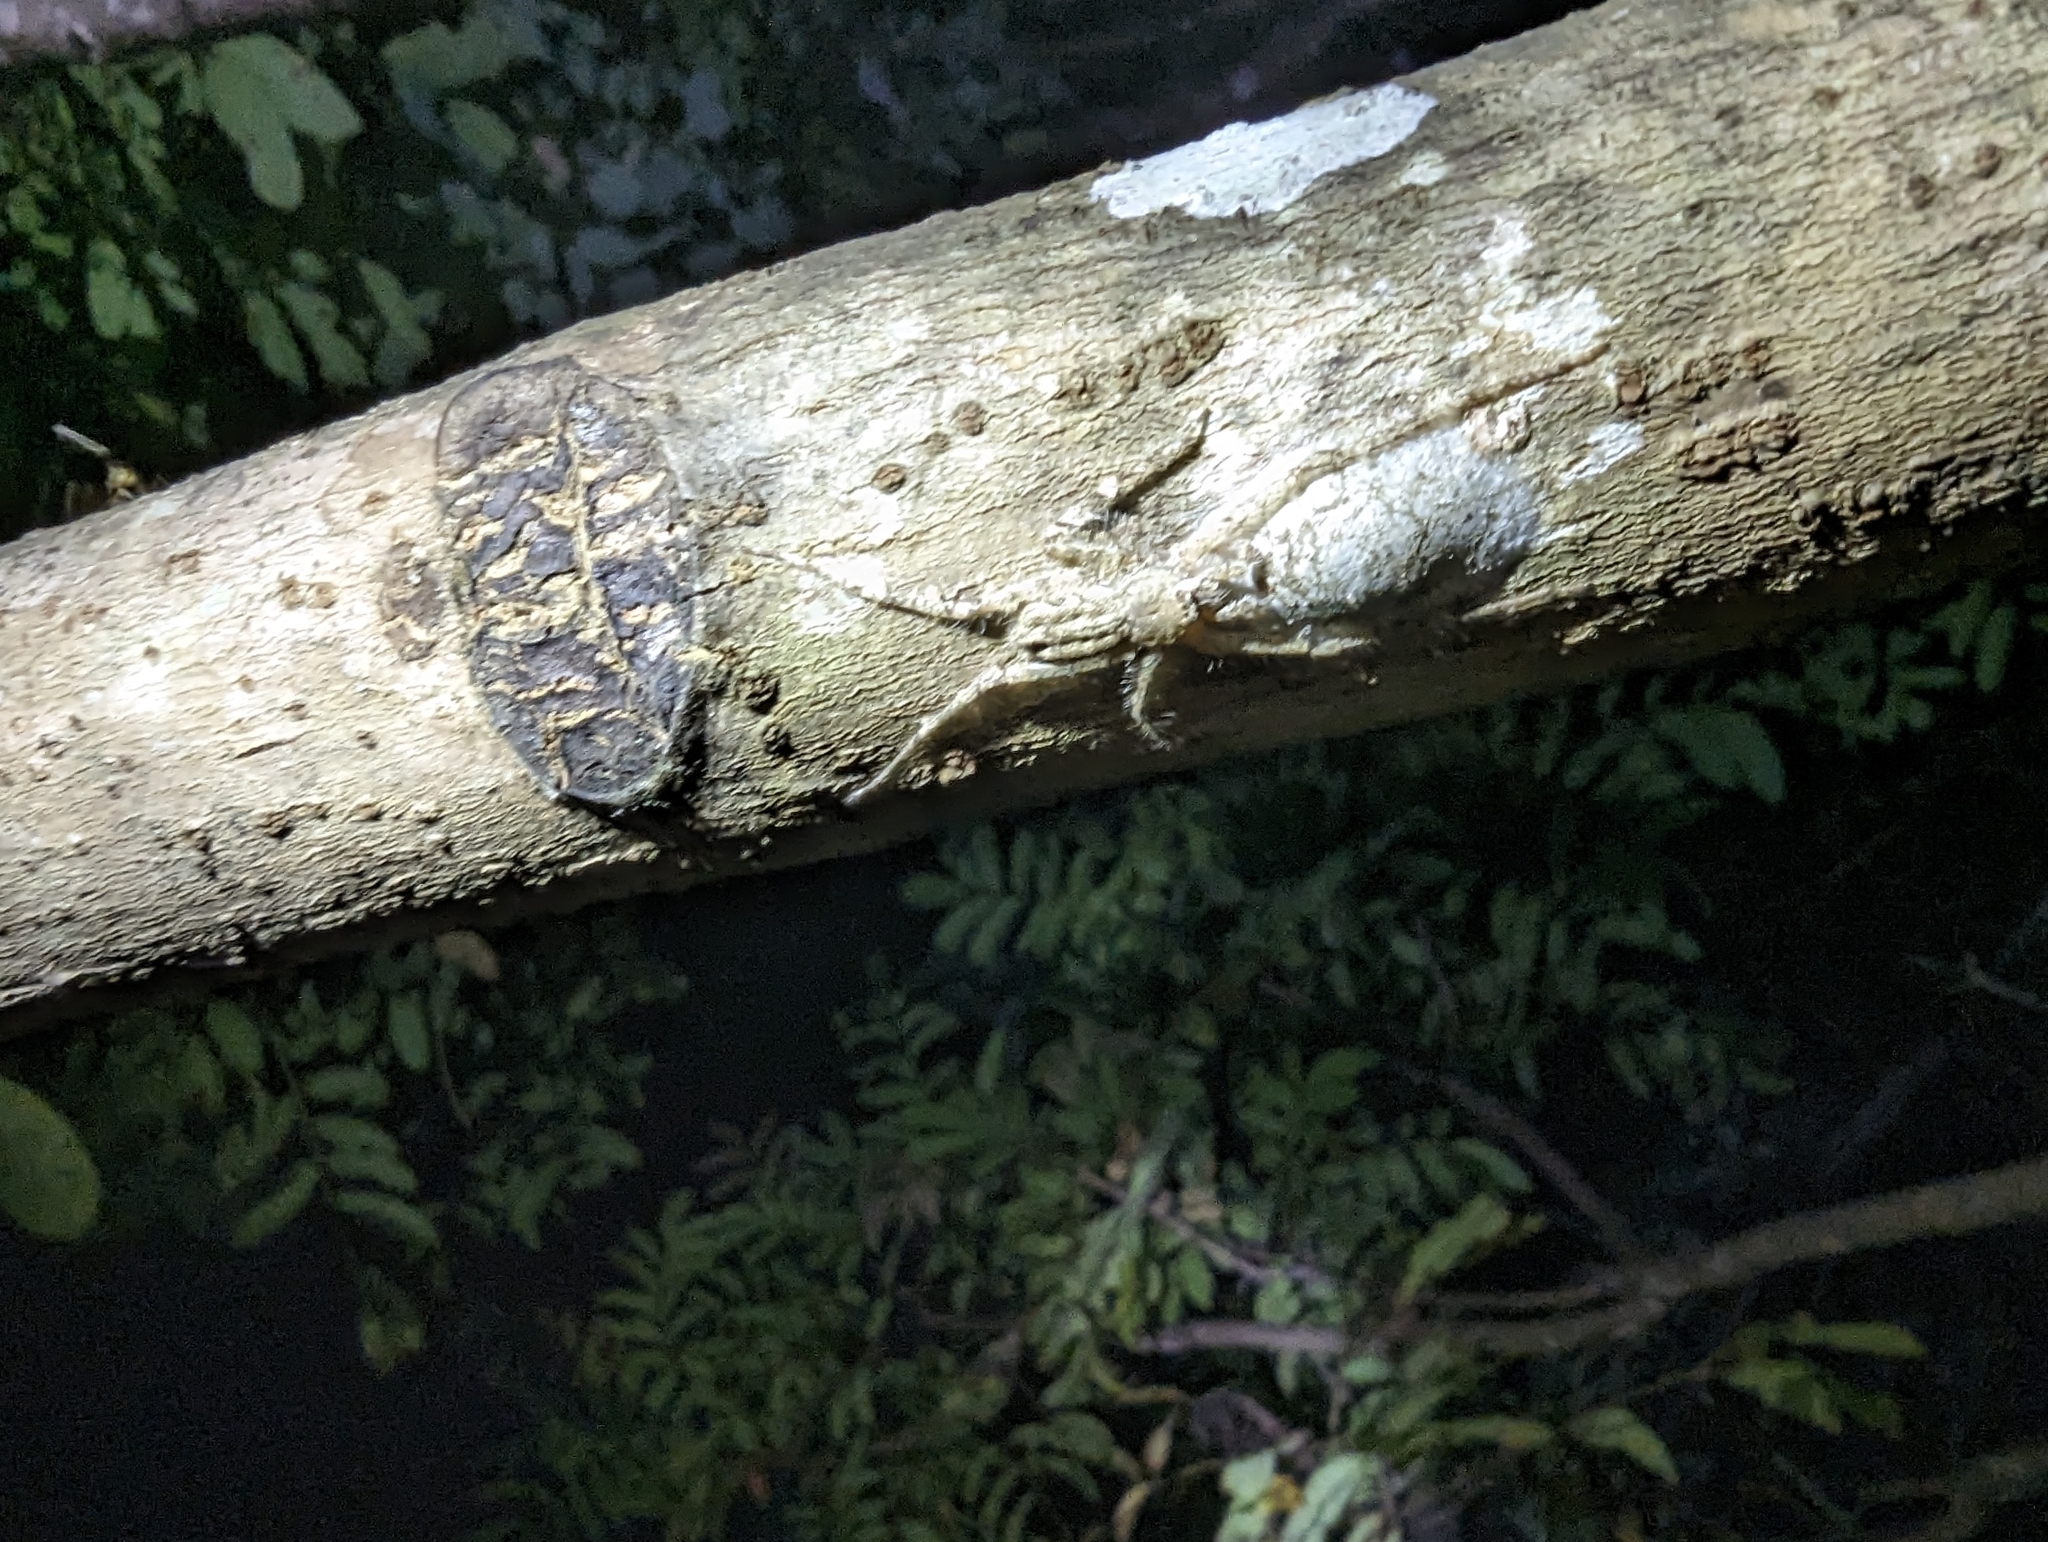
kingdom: Animalia
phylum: Arthropoda
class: Arachnida
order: Araneae
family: Sparassidae
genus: Pandercetes
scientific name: Pandercetes gracilis
